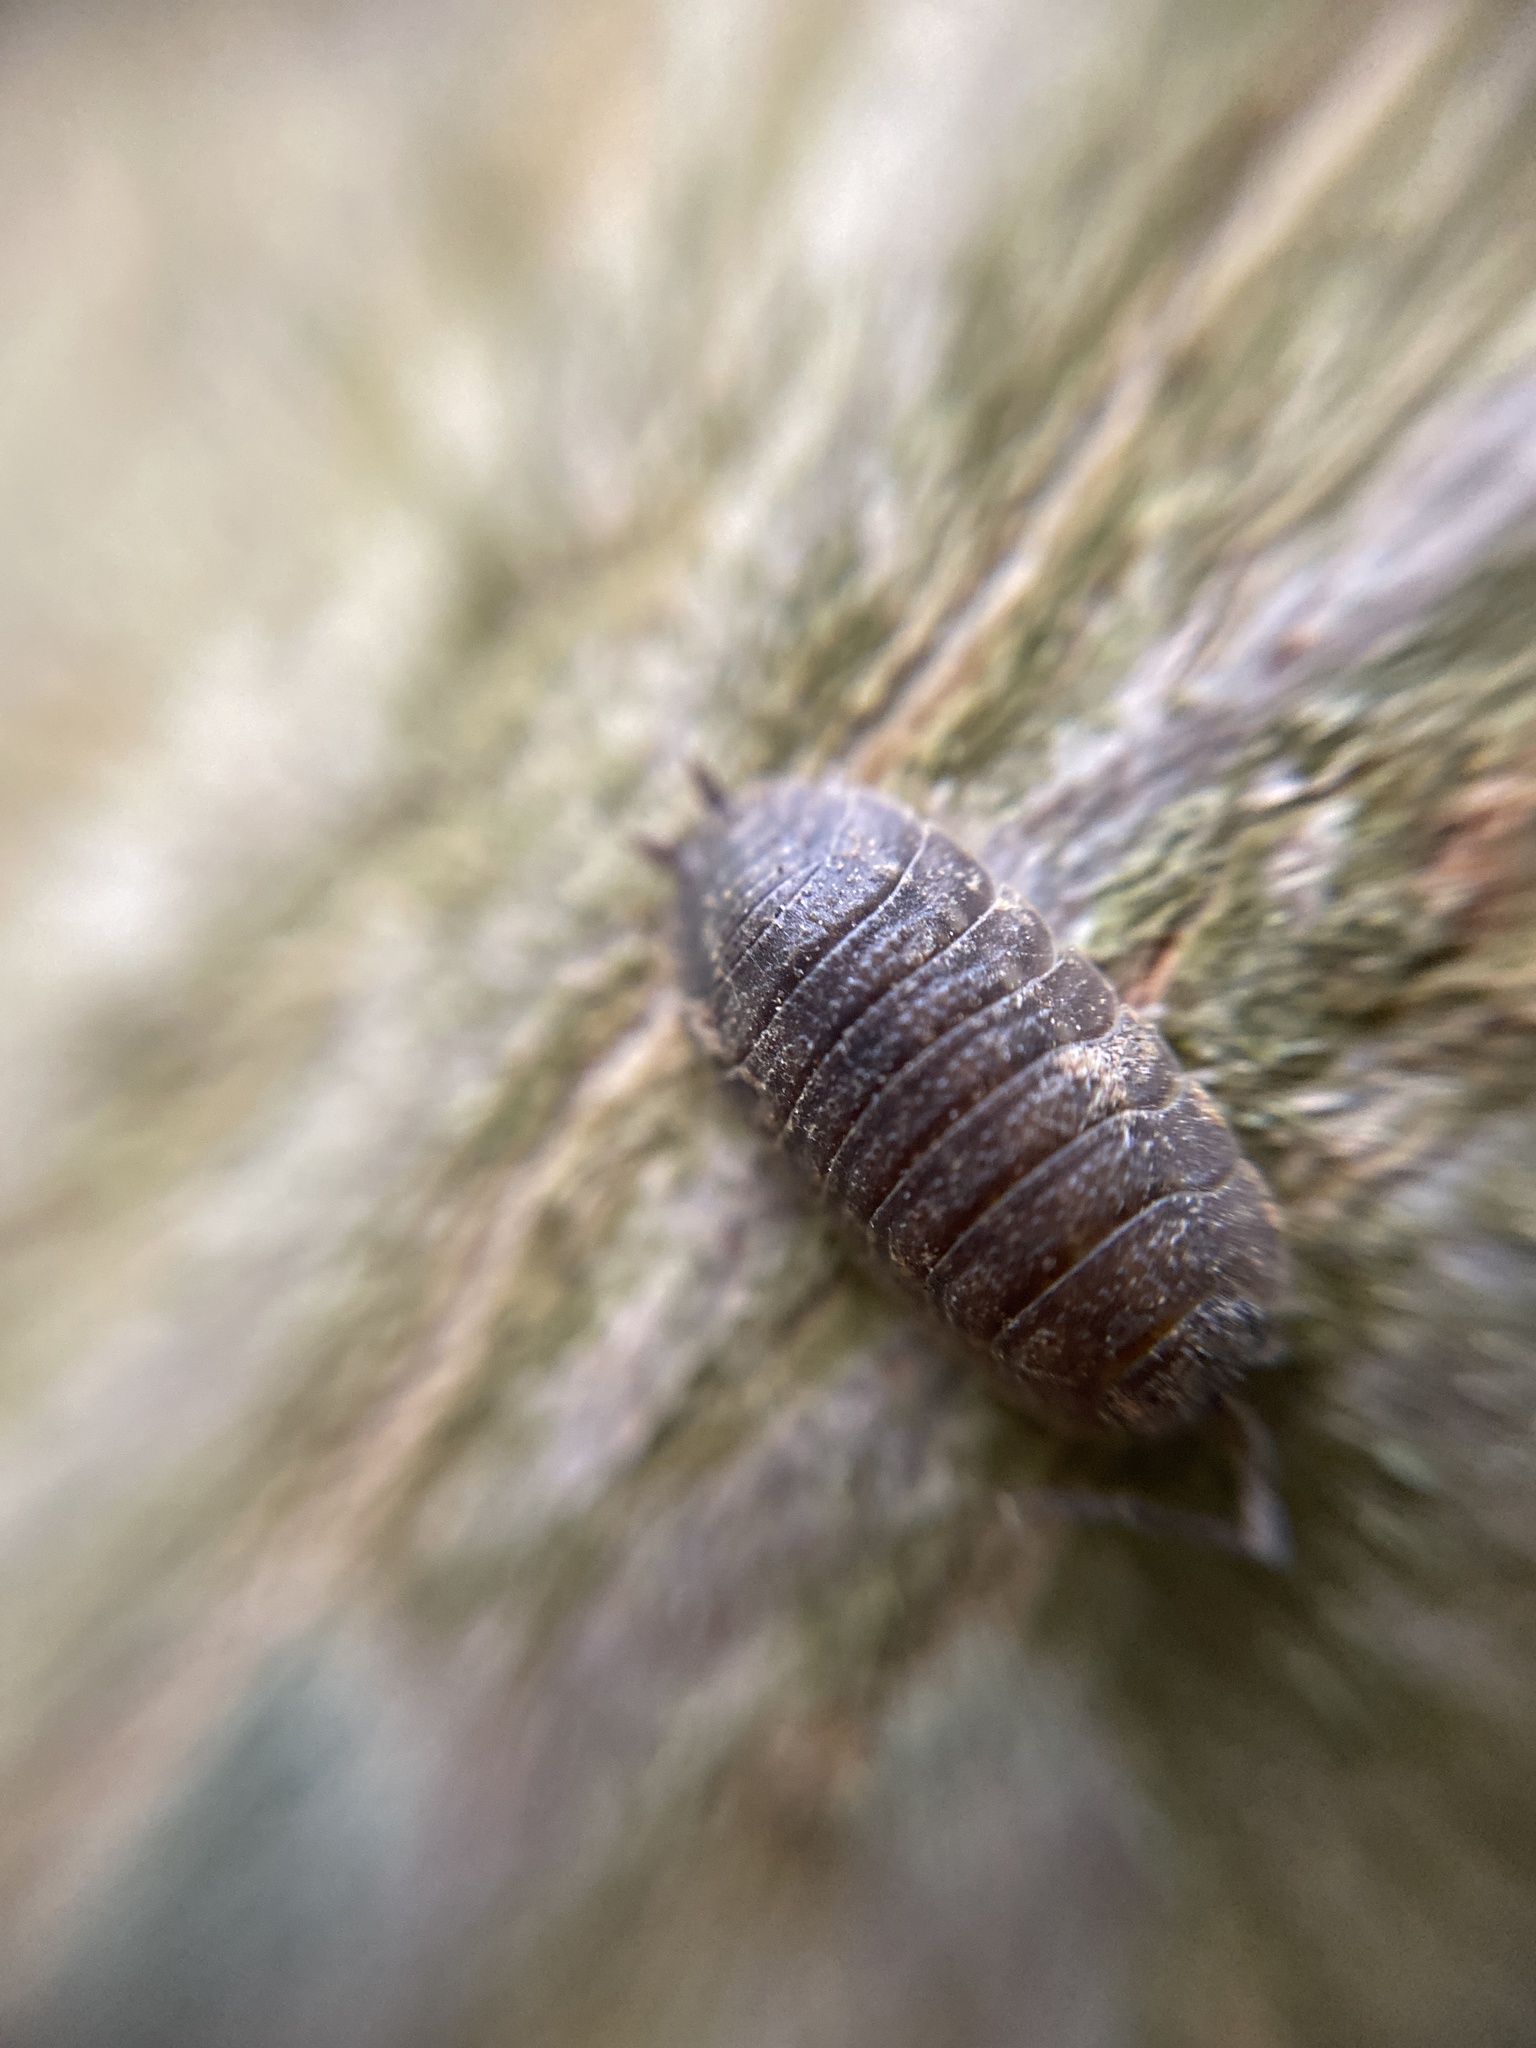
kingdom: Animalia
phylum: Arthropoda
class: Malacostraca
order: Isopoda
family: Porcellionidae
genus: Porcellio
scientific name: Porcellio scaber
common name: Common rough woodlouse
